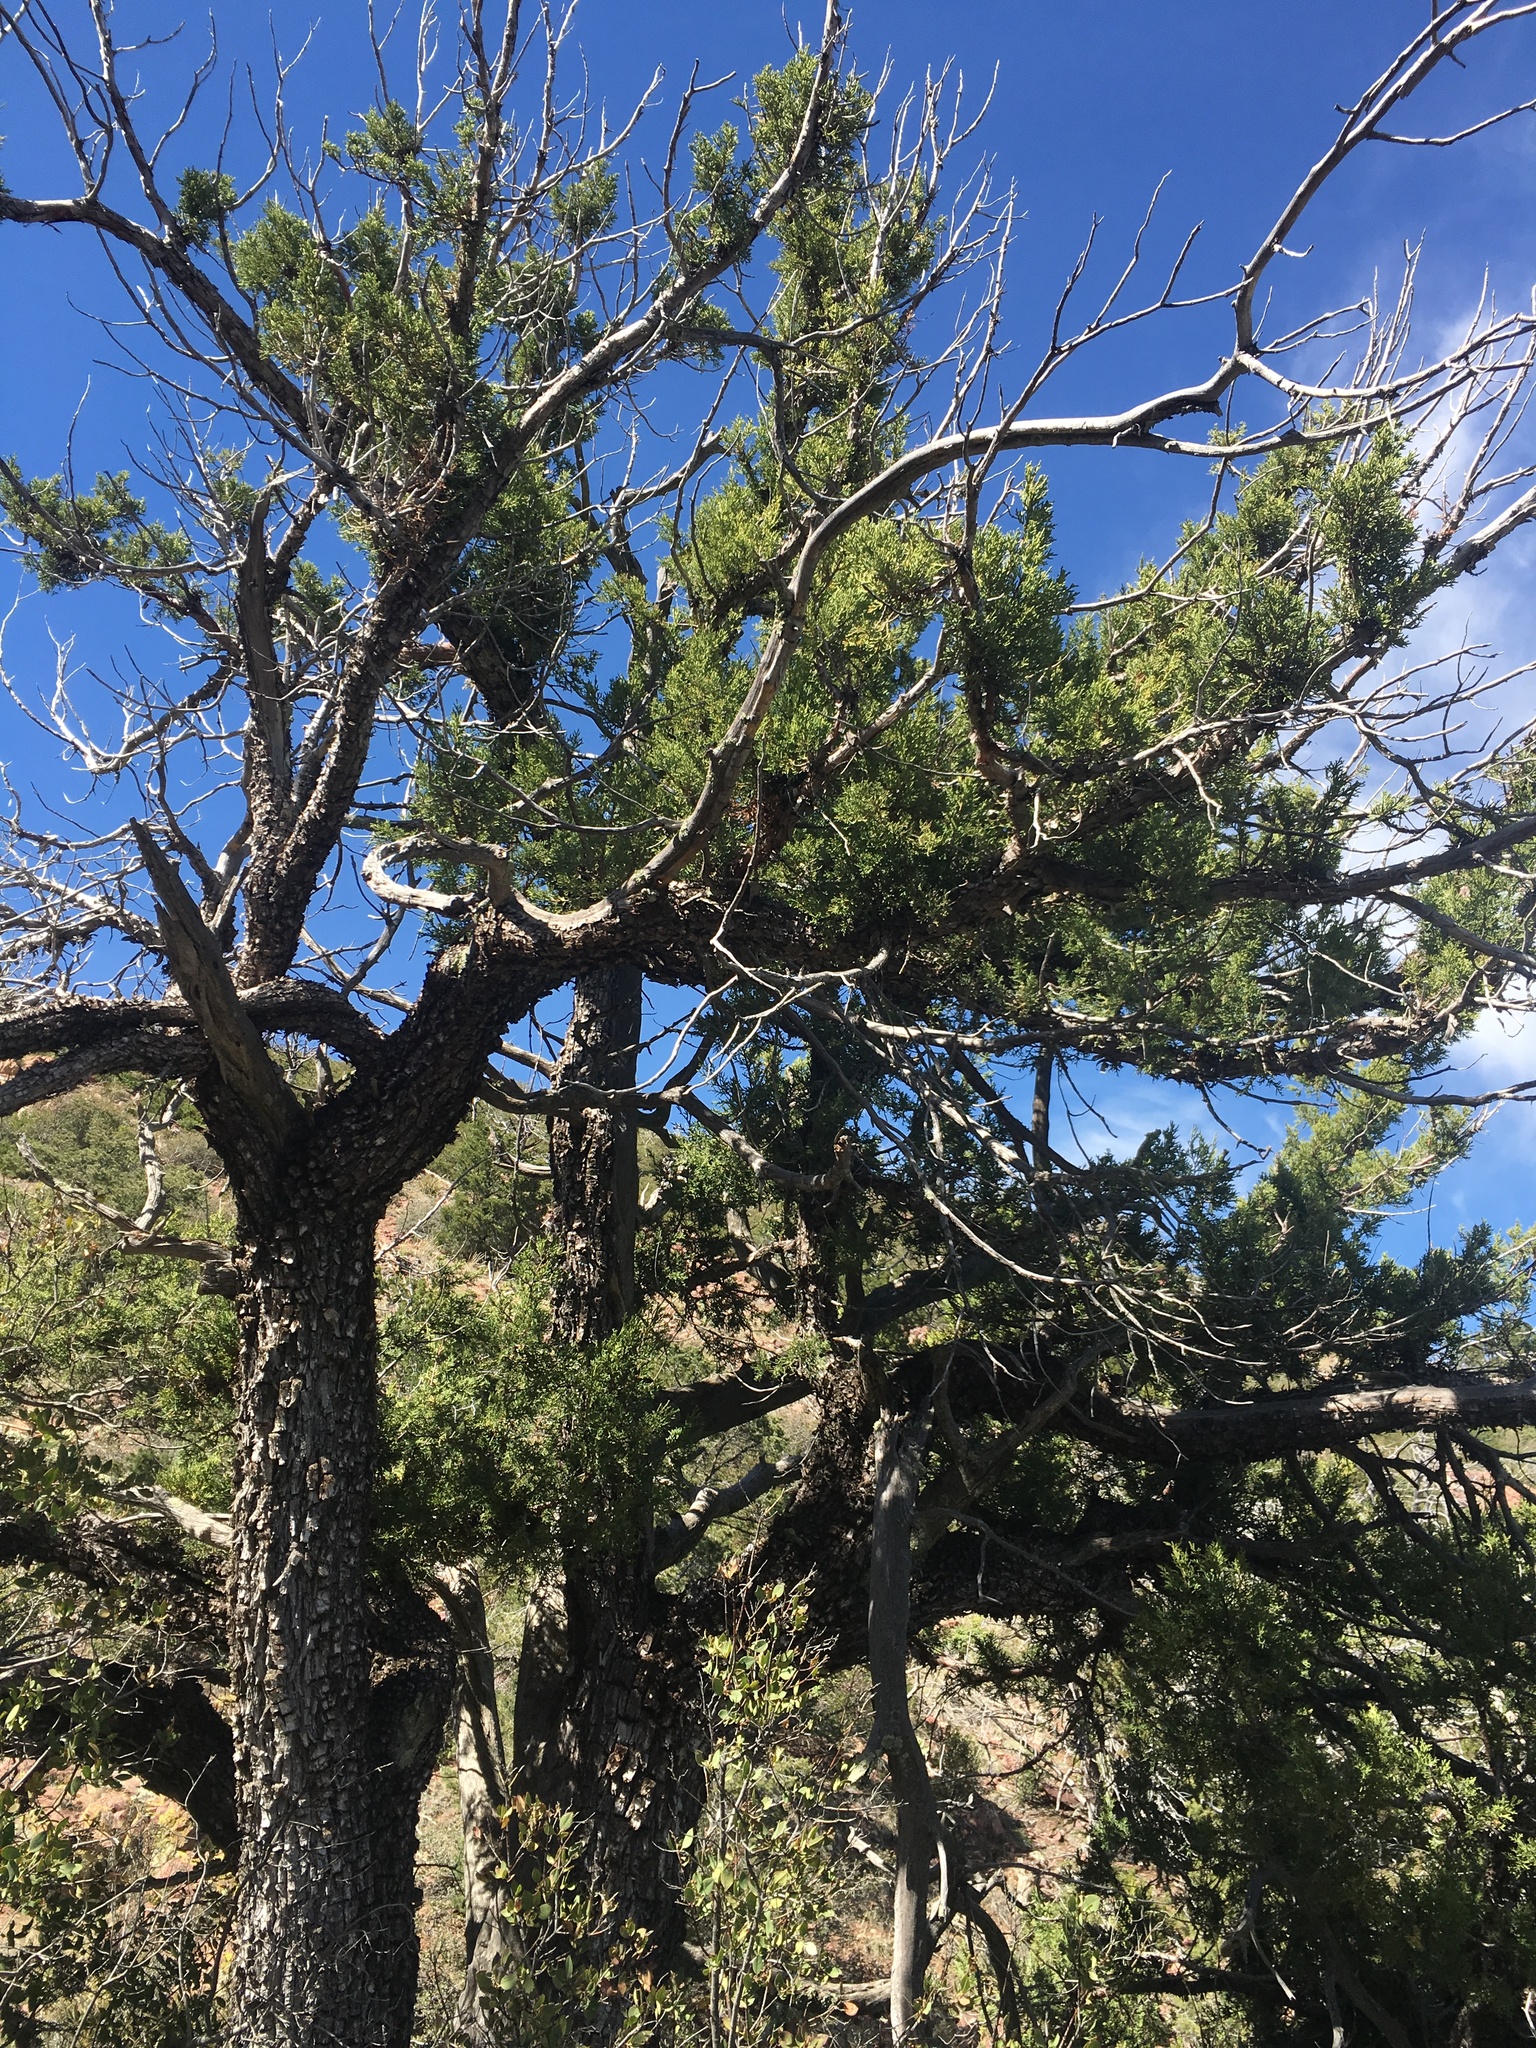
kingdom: Plantae
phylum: Tracheophyta
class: Pinopsida
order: Pinales
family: Cupressaceae
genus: Juniperus
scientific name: Juniperus deppeana
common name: Alligator juniper
